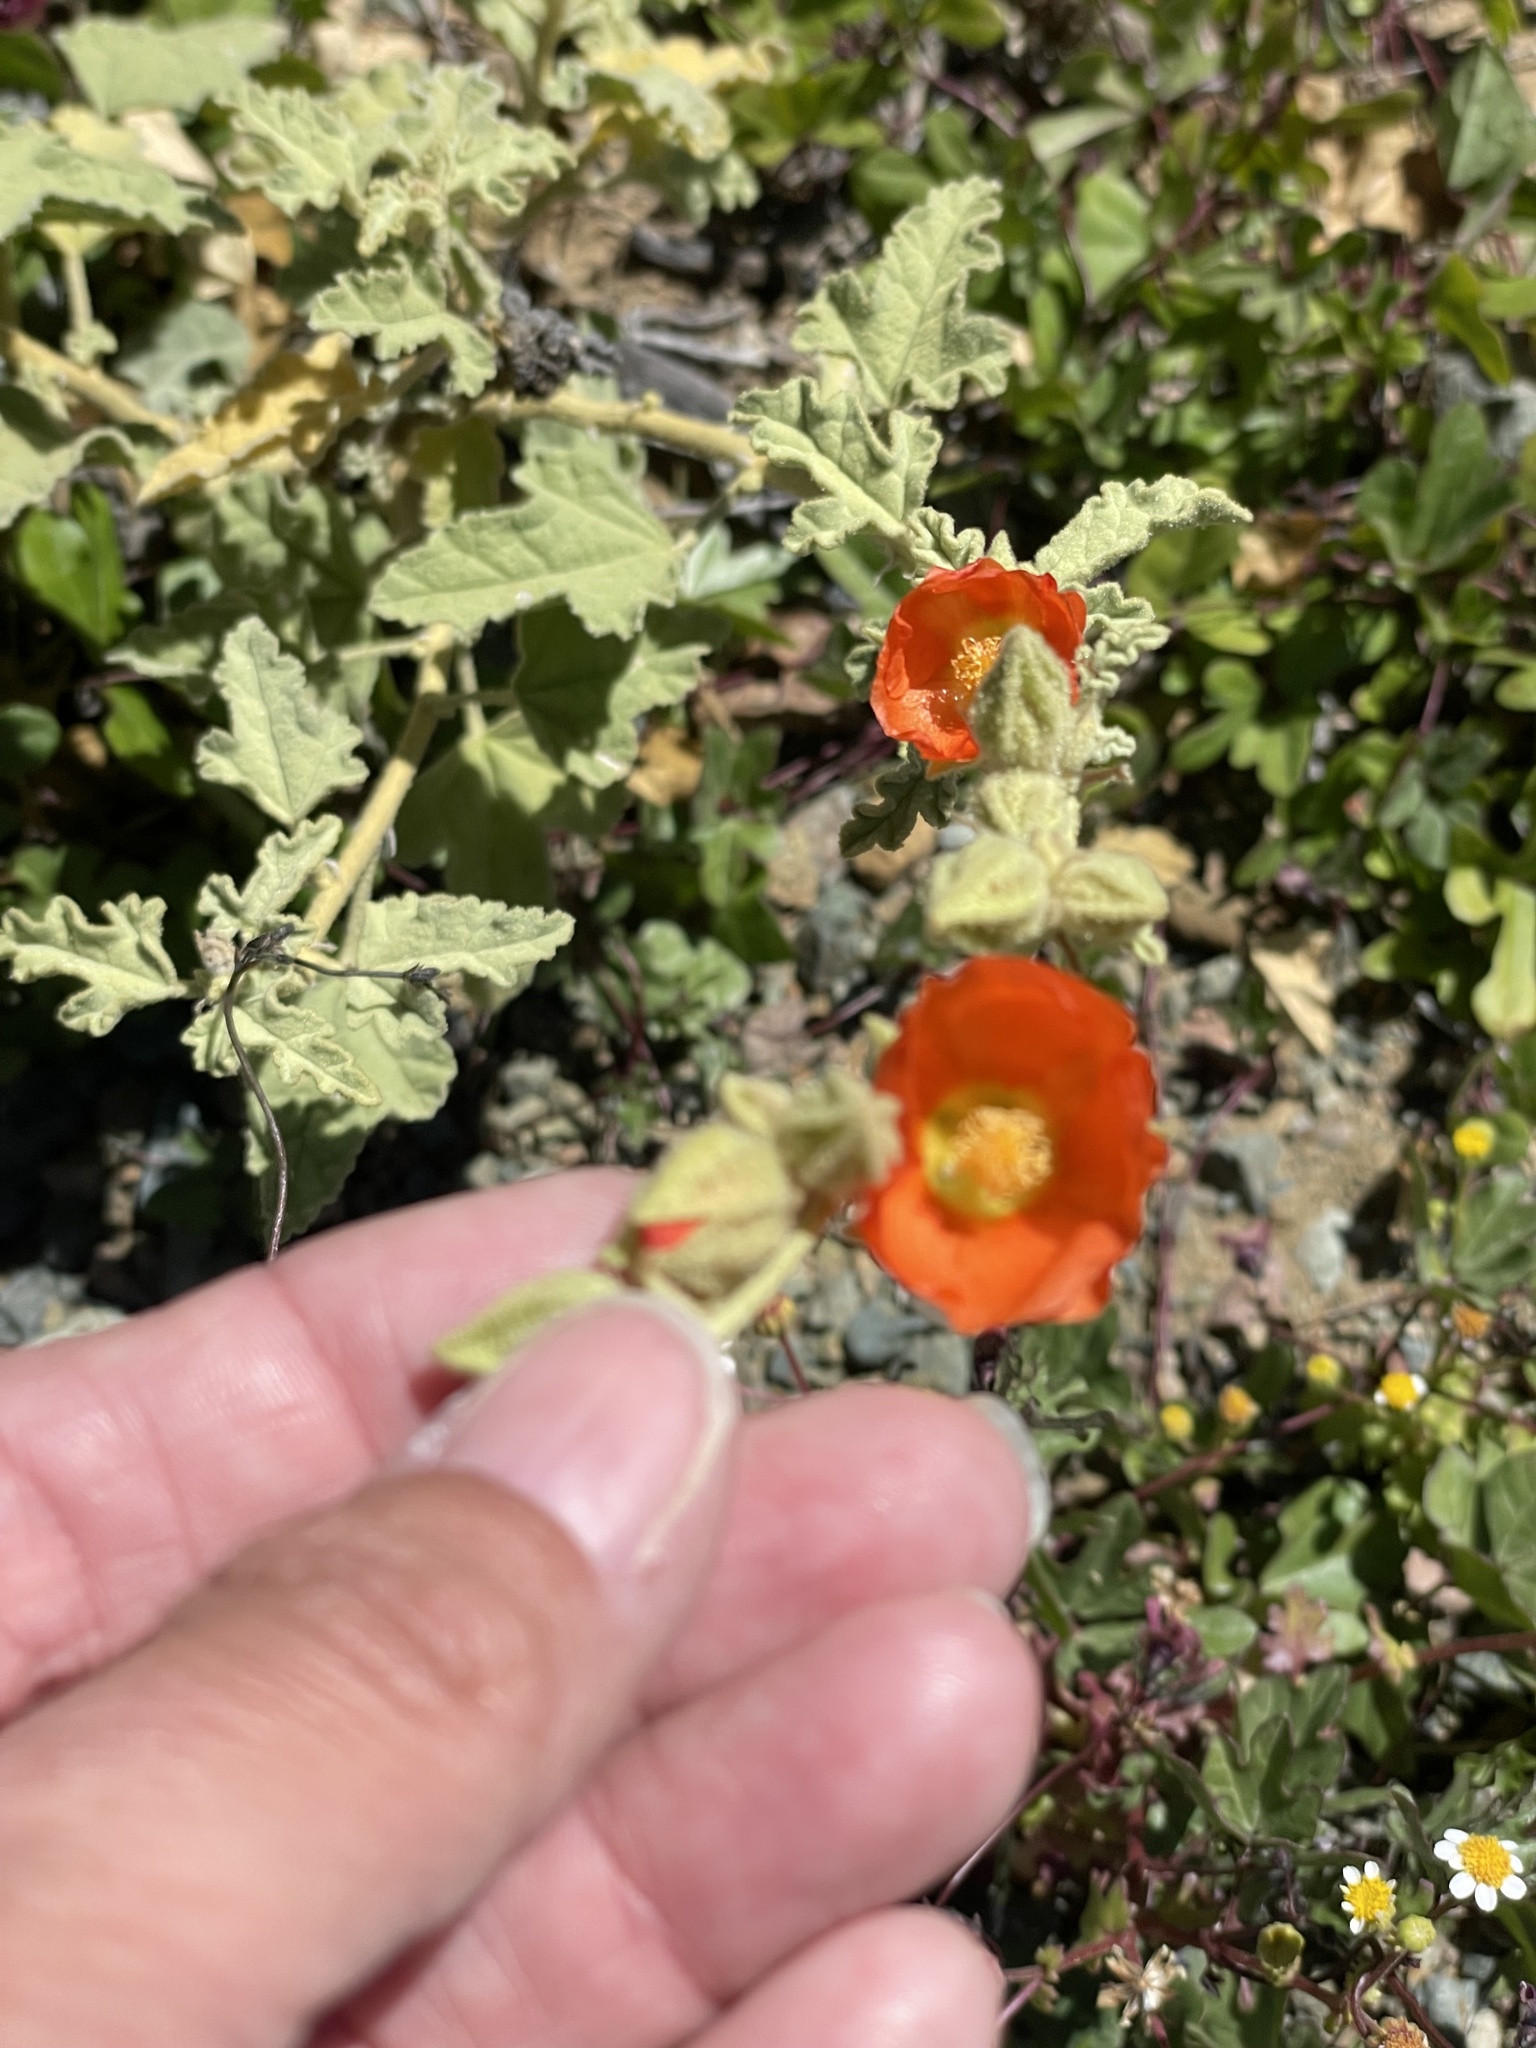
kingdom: Plantae
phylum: Tracheophyta
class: Magnoliopsida
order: Malvales
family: Malvaceae
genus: Sphaeralcea
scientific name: Sphaeralcea ambigua
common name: Apricot globe-mallow
